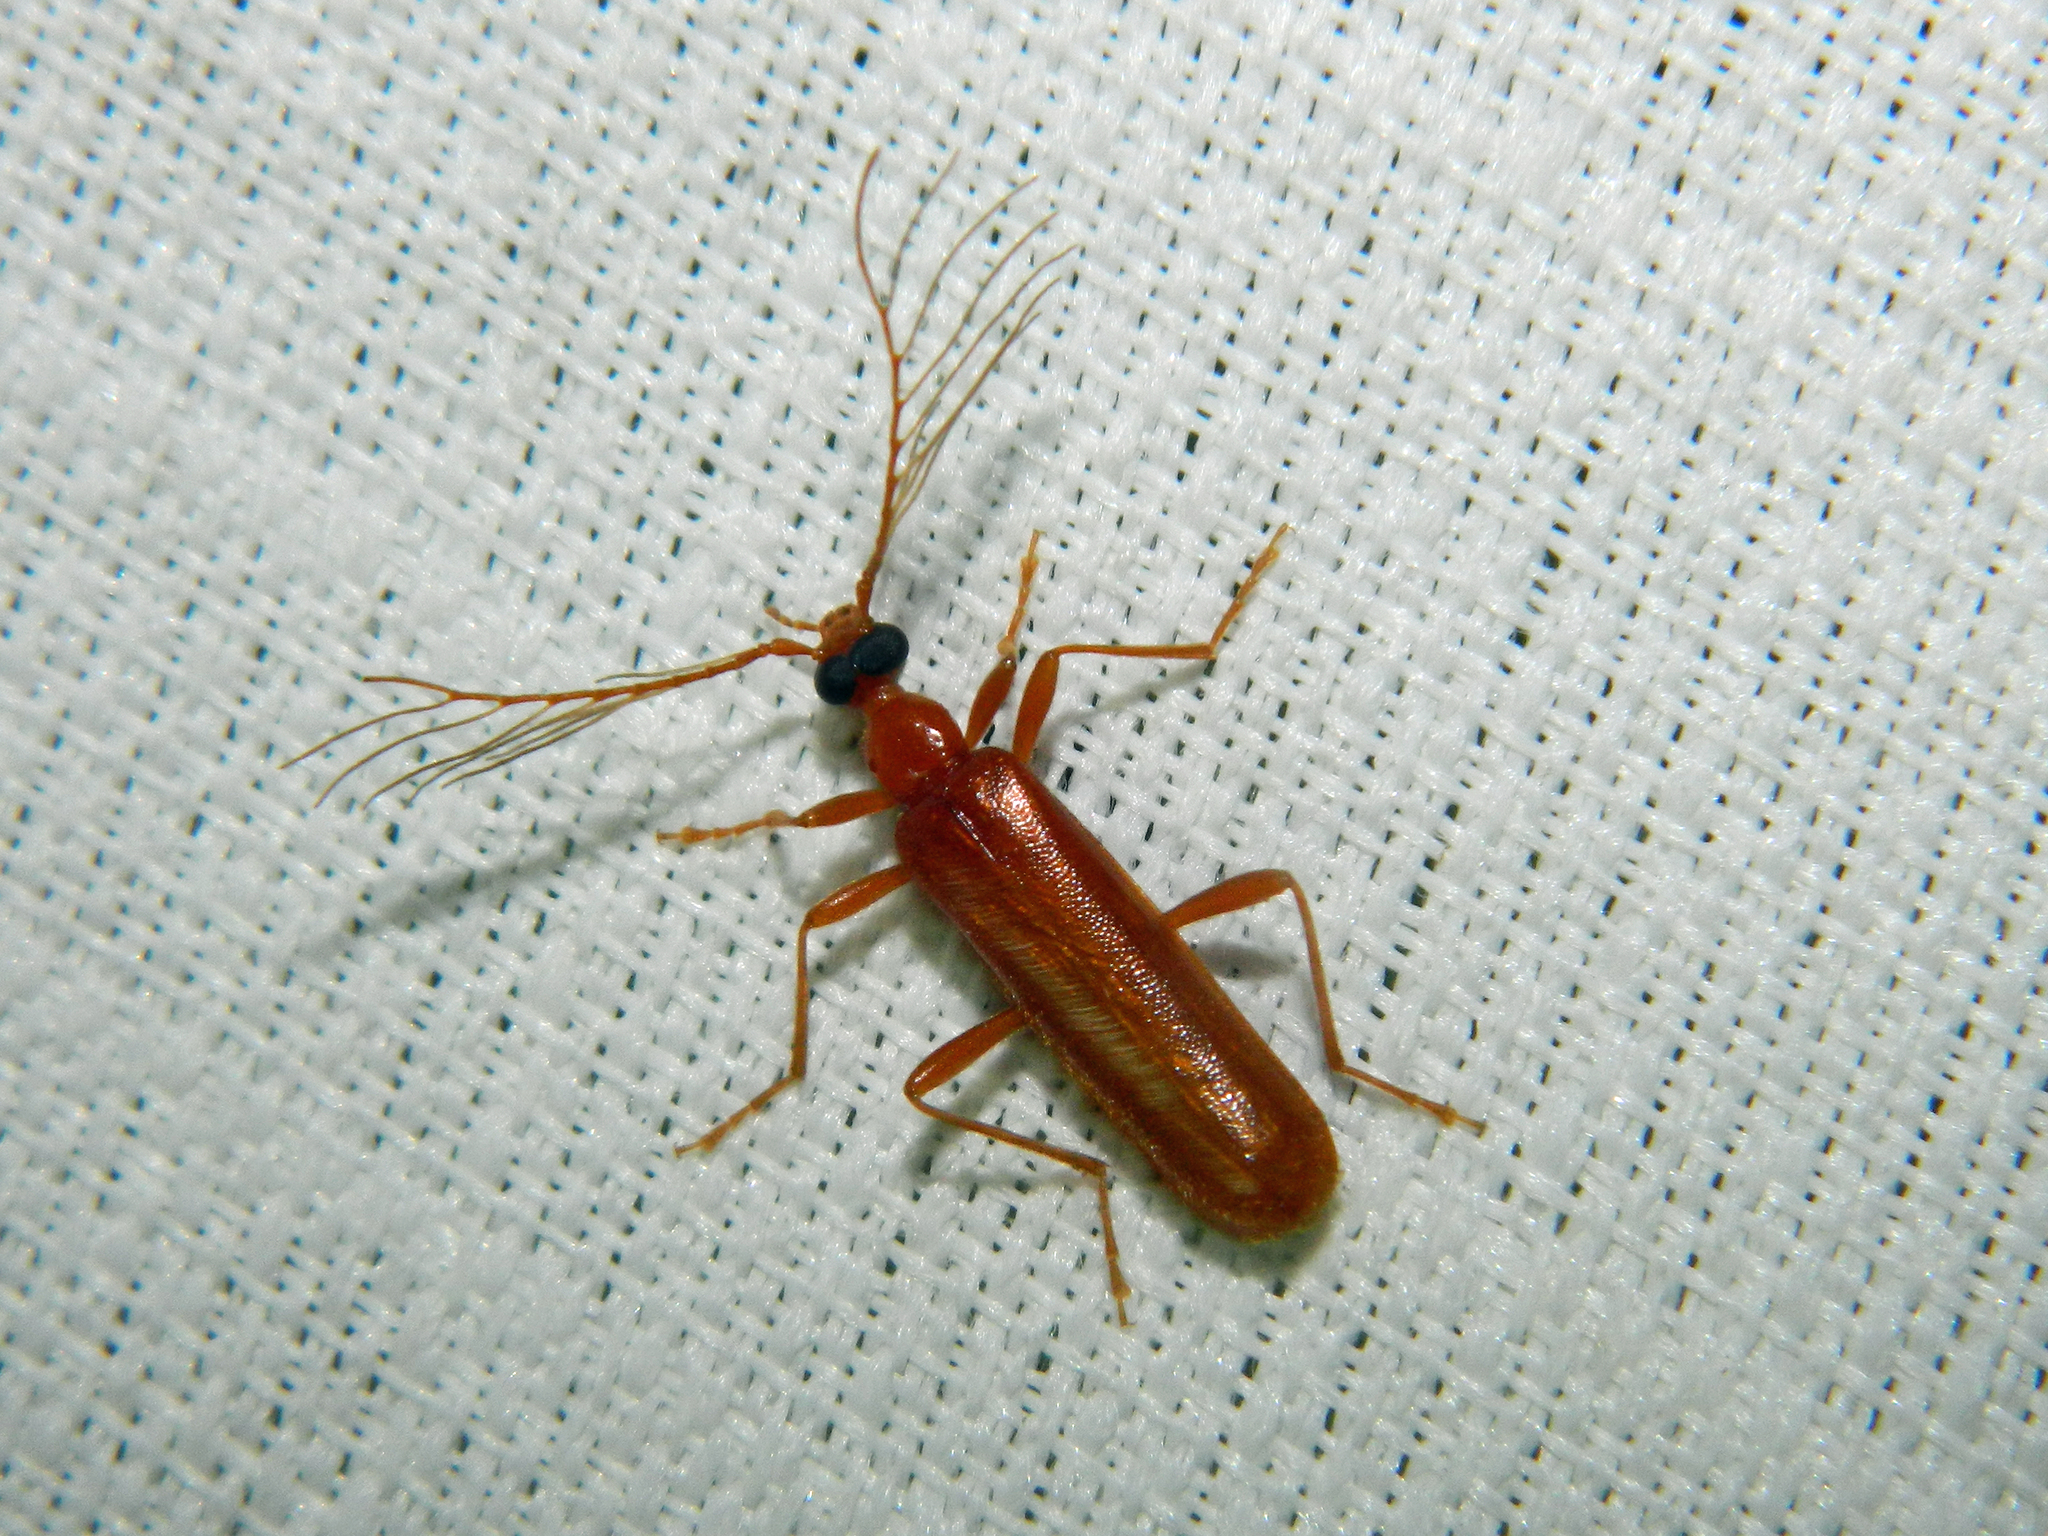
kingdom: Animalia
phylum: Arthropoda
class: Insecta
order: Coleoptera
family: Pyrochroidae
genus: Dendroides
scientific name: Dendroides concolor
